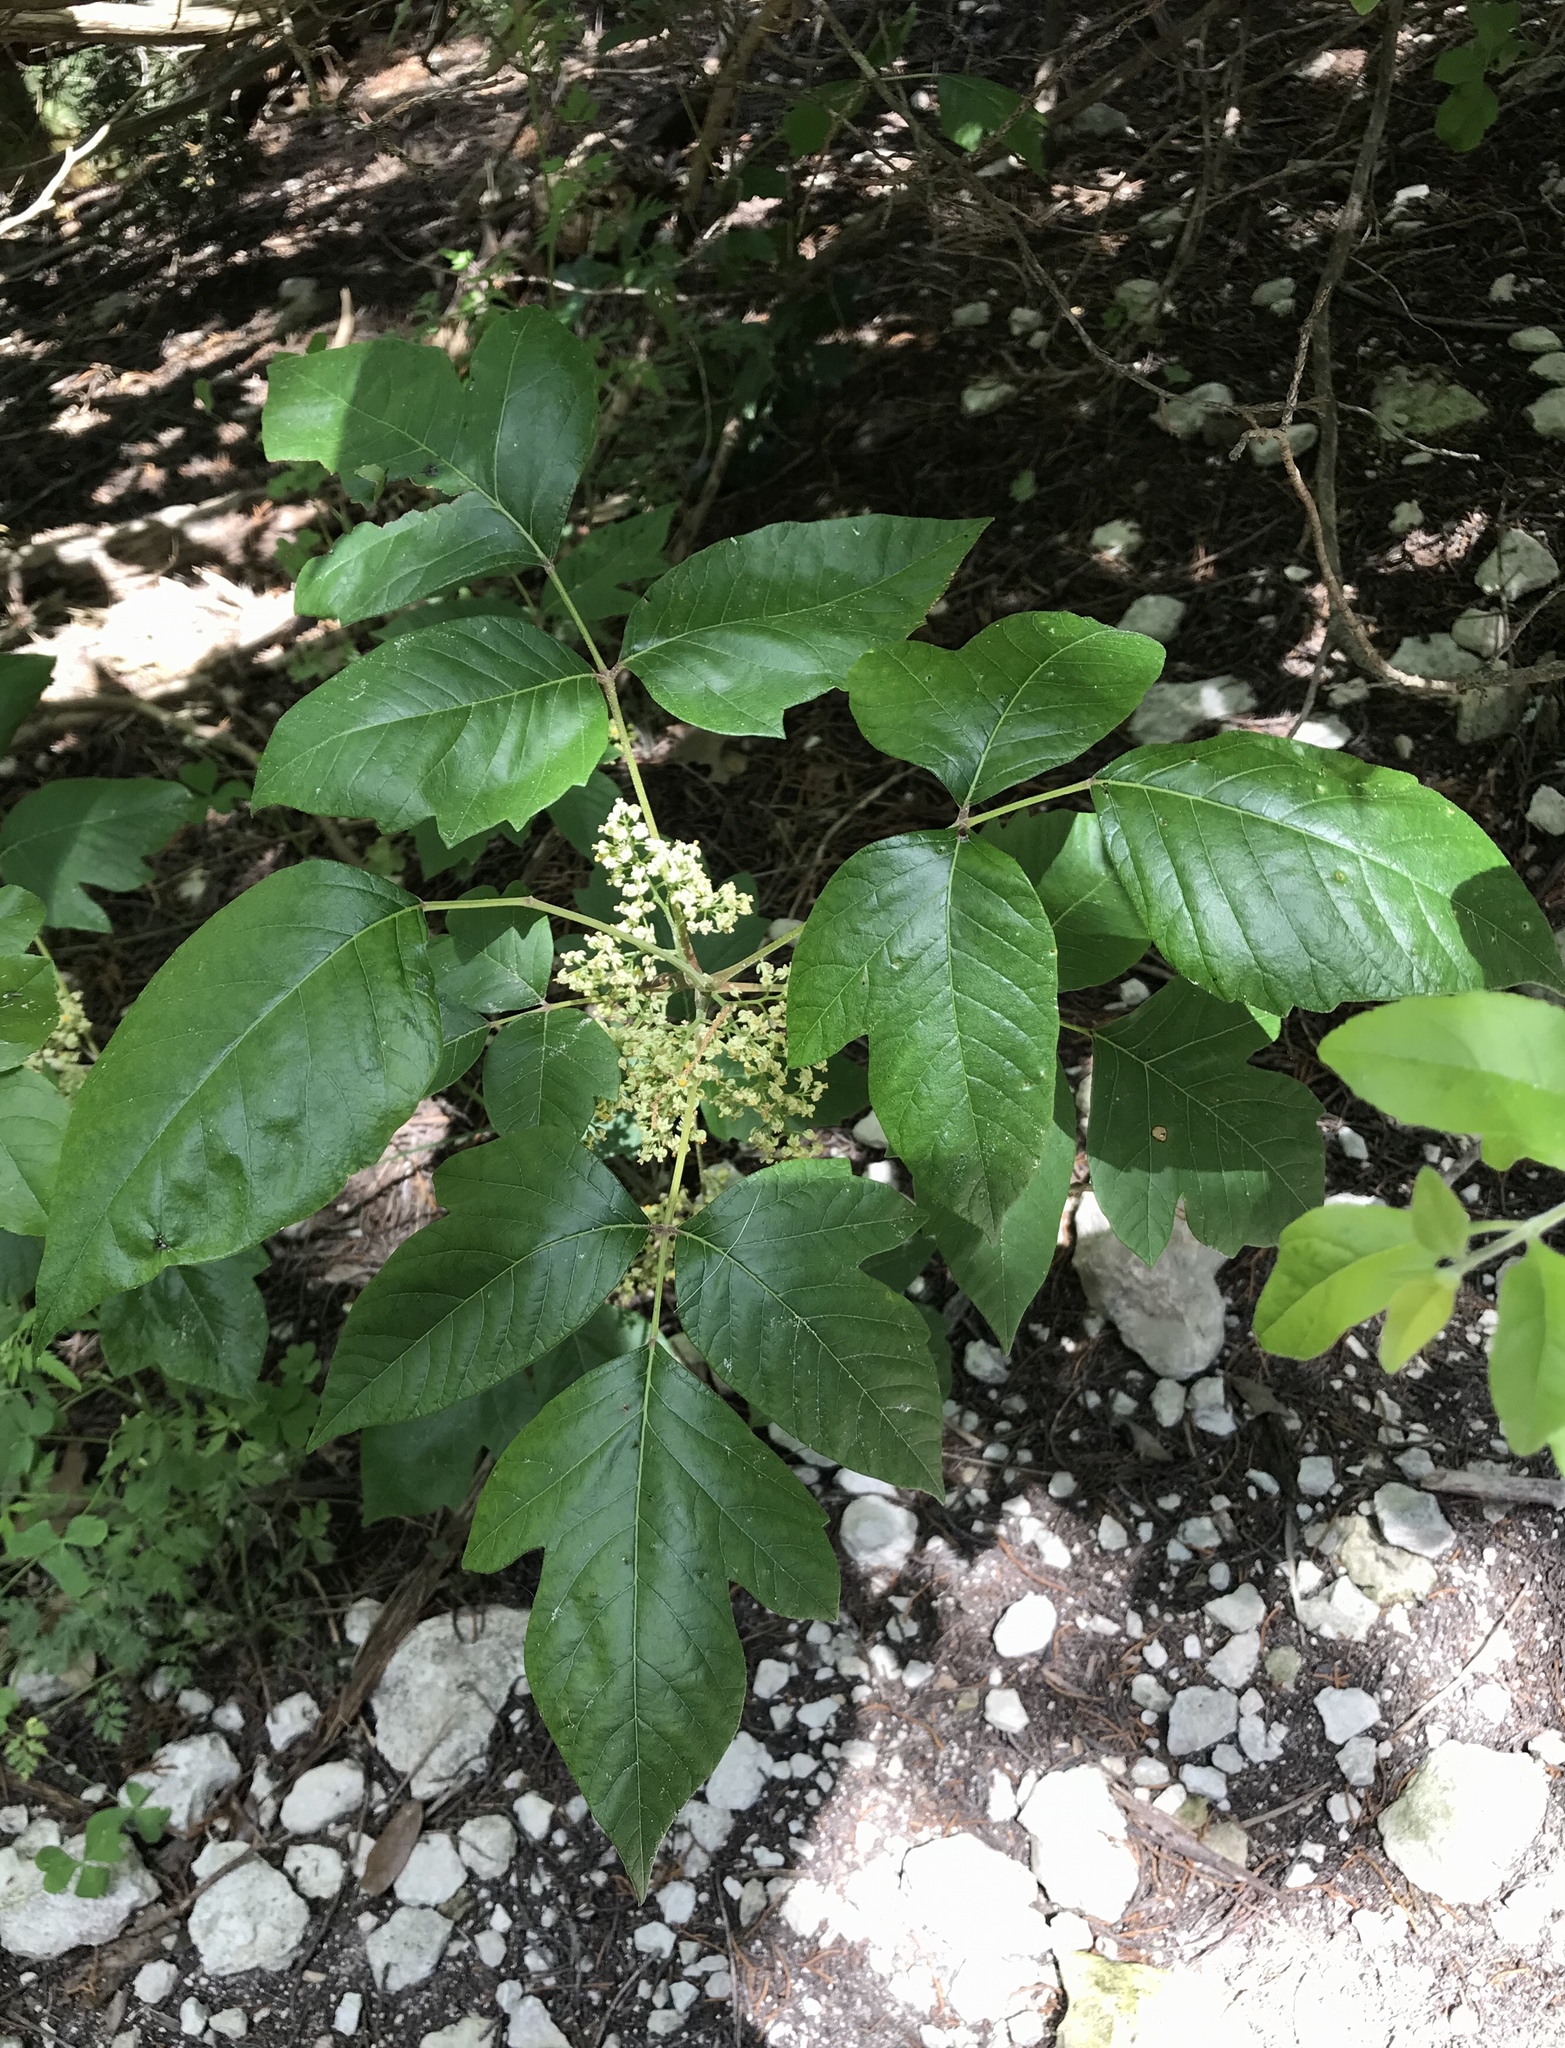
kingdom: Plantae
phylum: Tracheophyta
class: Magnoliopsida
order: Sapindales
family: Anacardiaceae
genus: Toxicodendron
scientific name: Toxicodendron radicans
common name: Poison ivy
